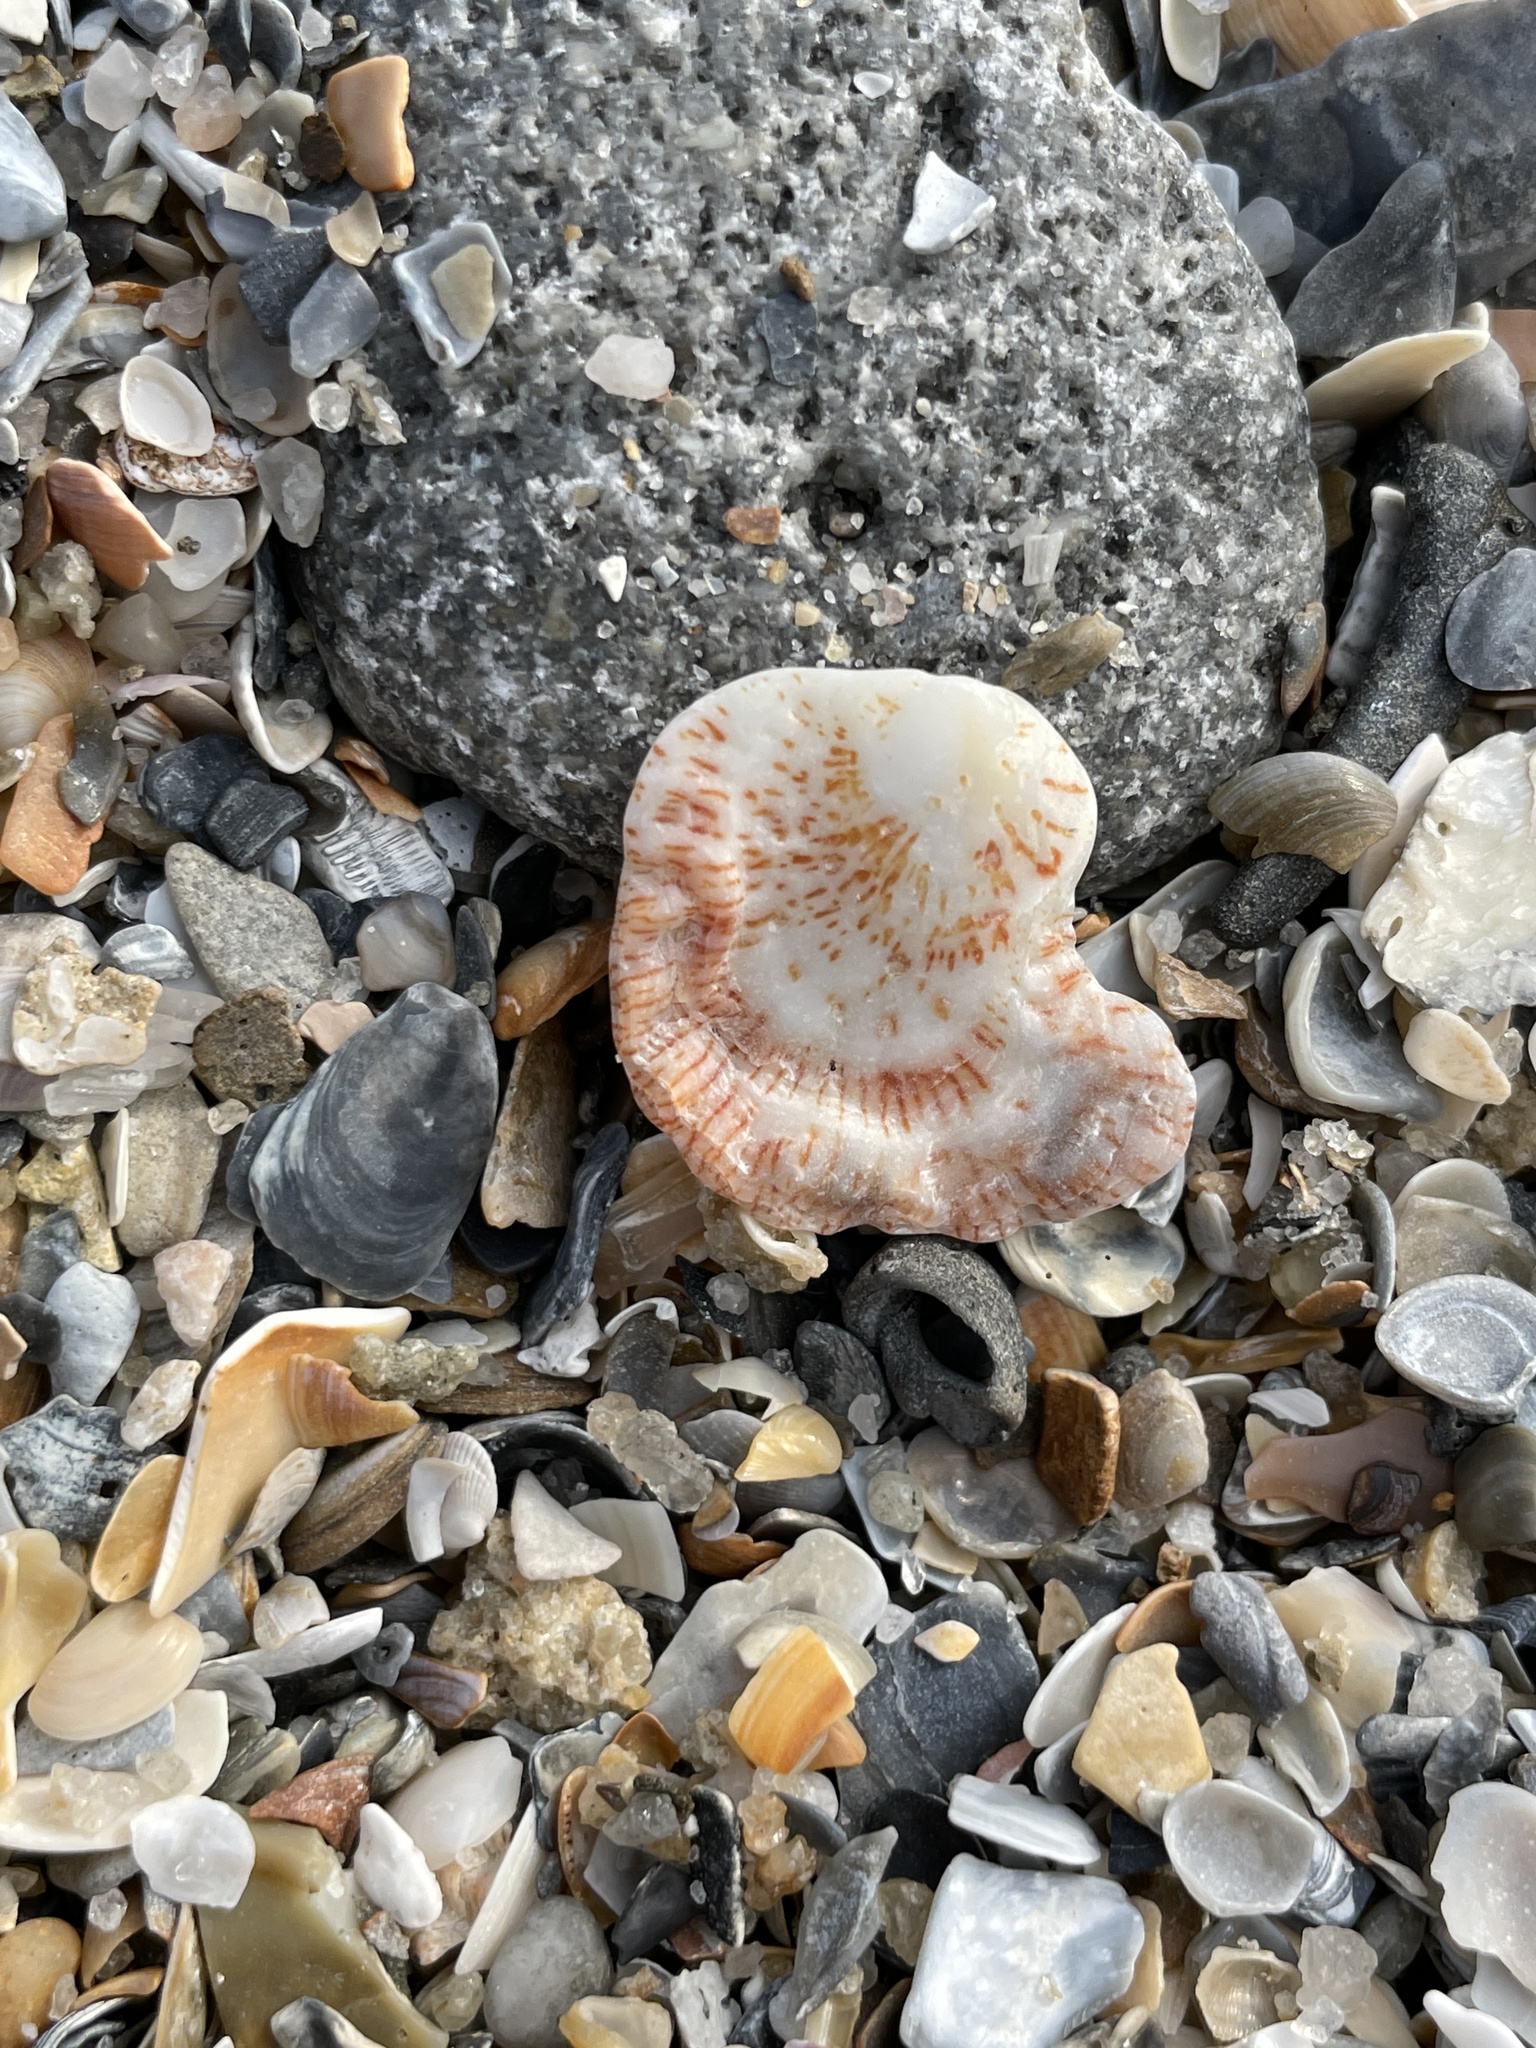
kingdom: Animalia
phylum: Mollusca
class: Bivalvia
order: Pectinida
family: Plicatulidae
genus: Plicatula
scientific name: Plicatula gibbosa
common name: Atlantic kitten's paw
